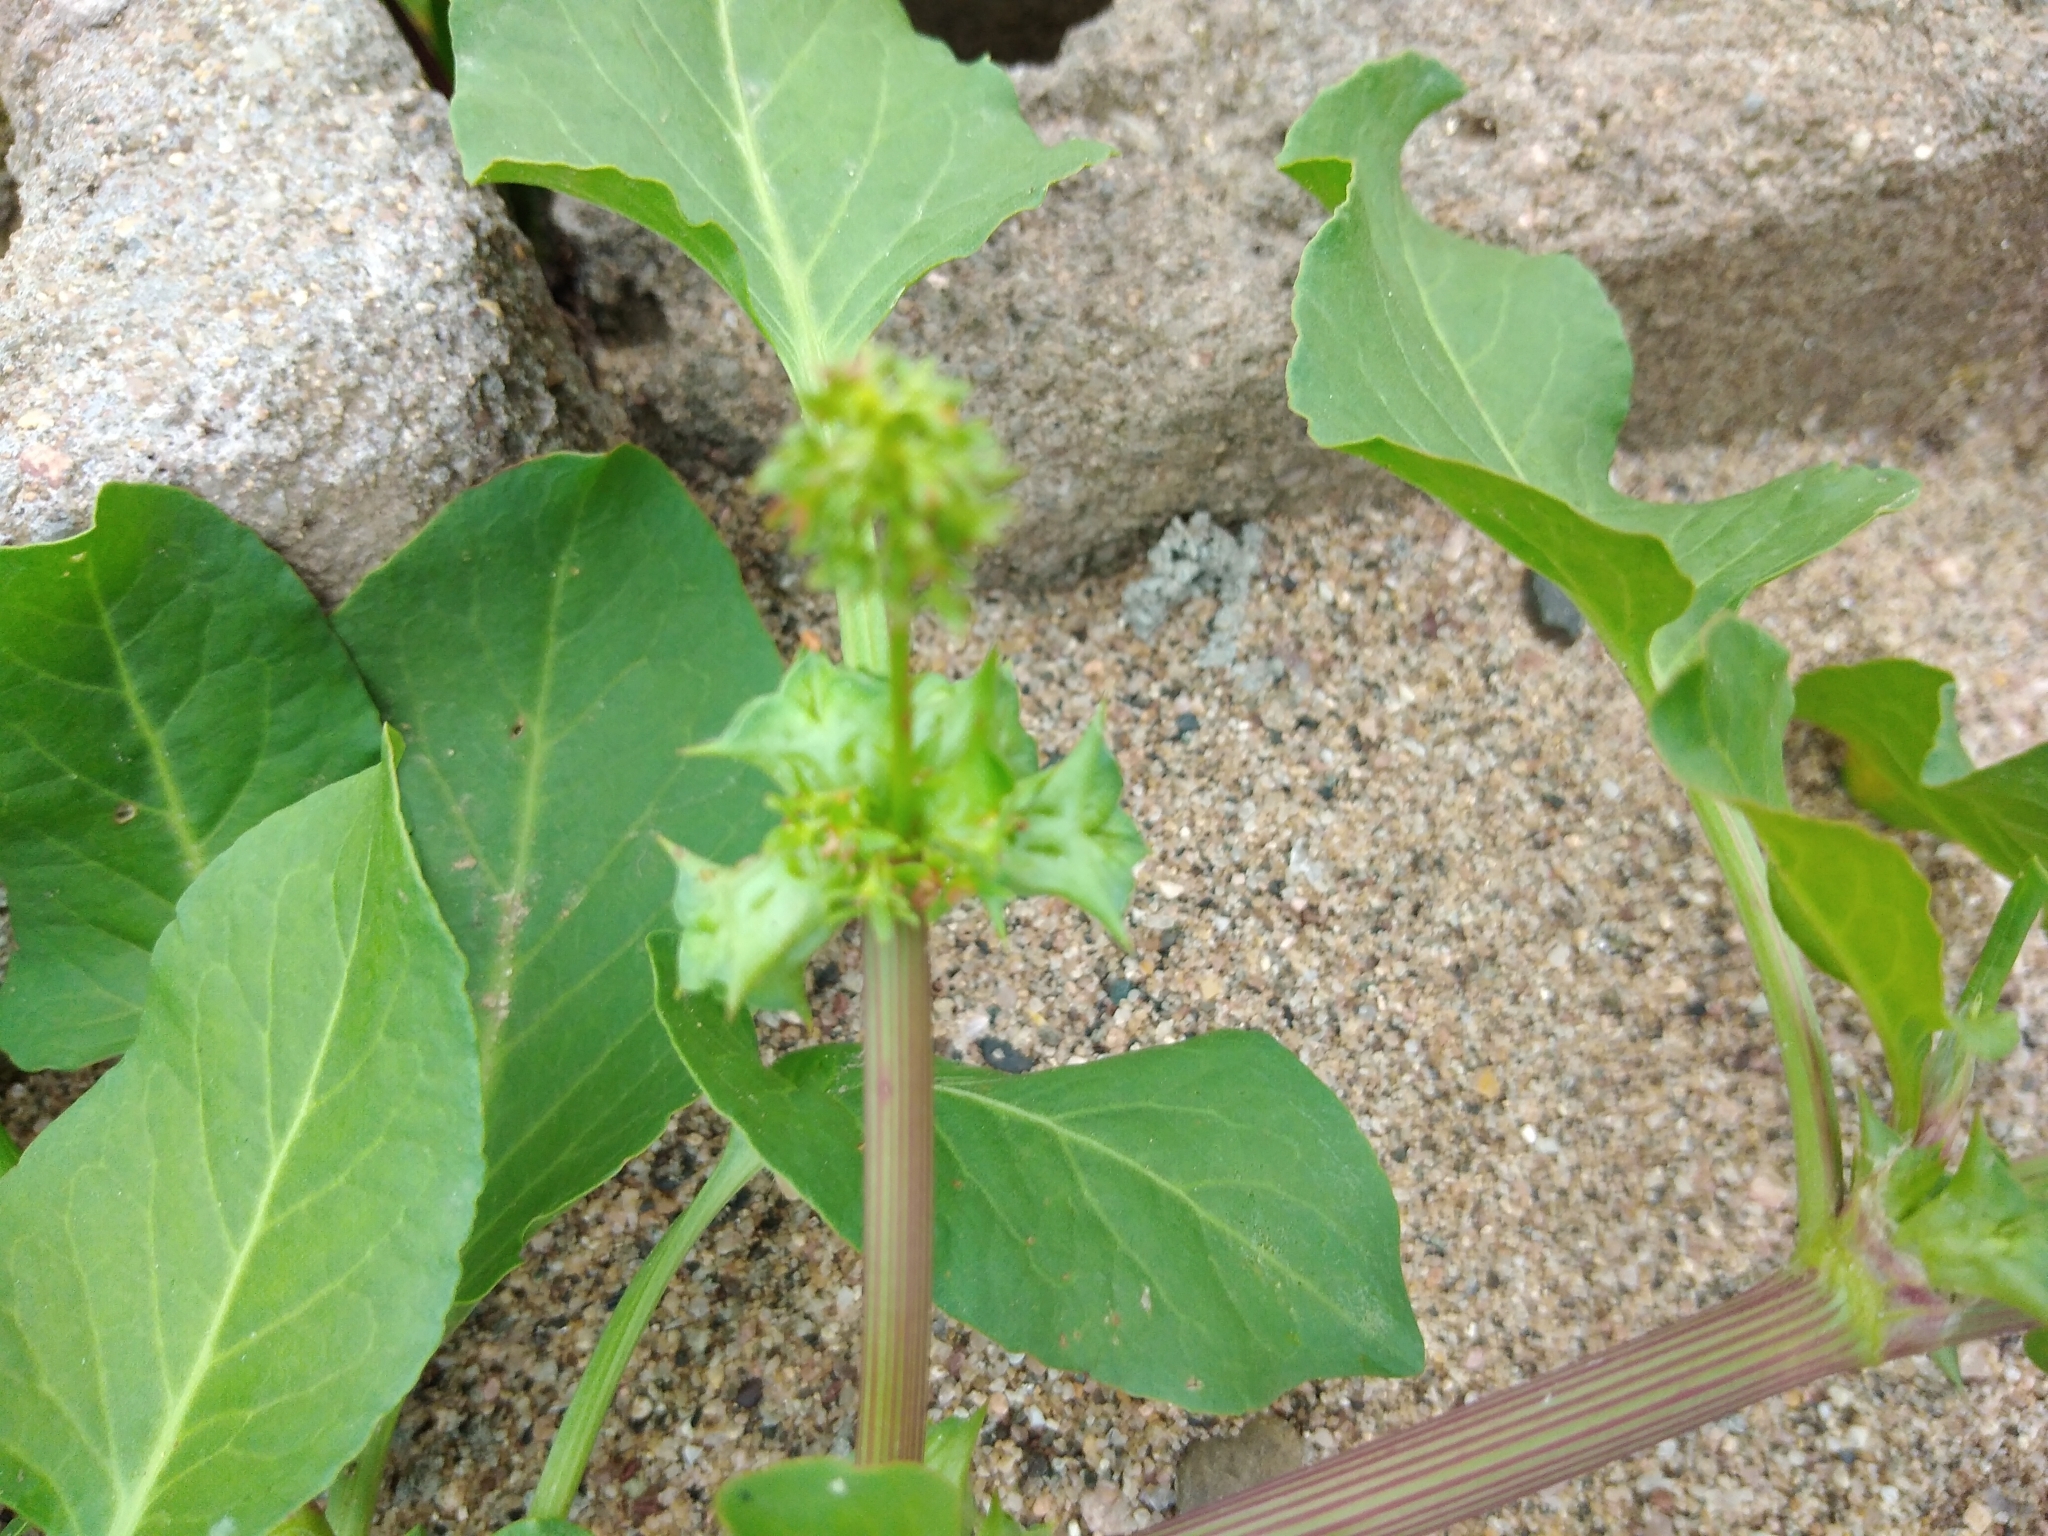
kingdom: Plantae
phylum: Tracheophyta
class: Magnoliopsida
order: Caryophyllales
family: Polygonaceae
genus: Rumex
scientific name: Rumex hypogaeus
